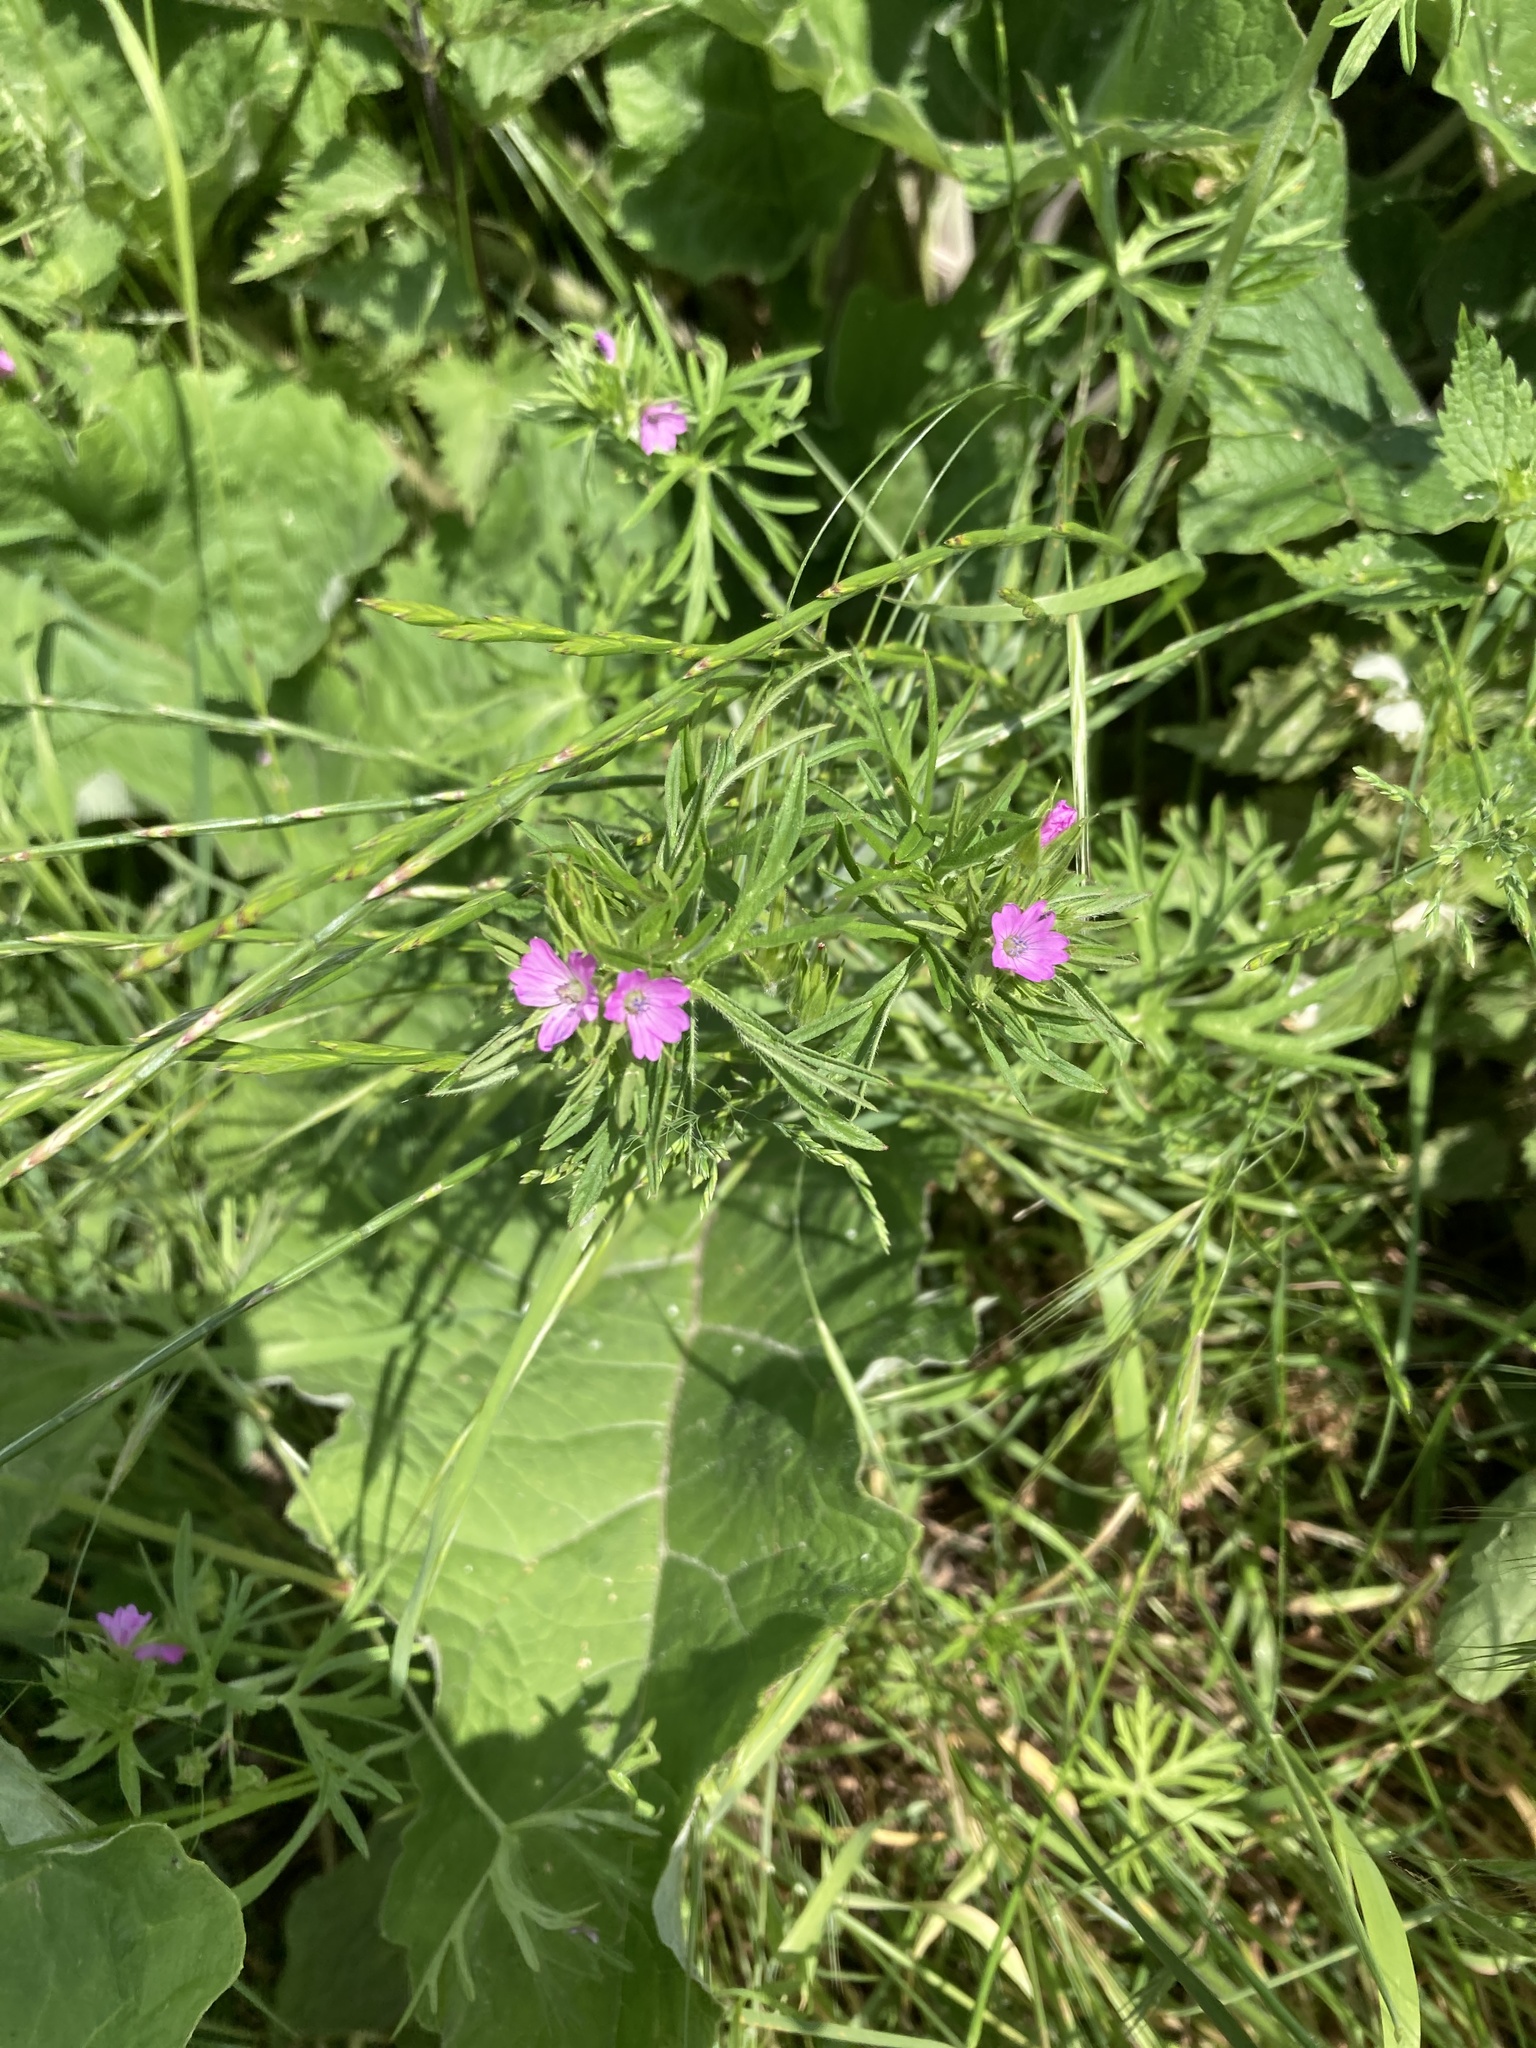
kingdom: Plantae
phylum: Tracheophyta
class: Magnoliopsida
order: Geraniales
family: Geraniaceae
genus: Geranium
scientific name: Geranium dissectum
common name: Cut-leaved crane's-bill
